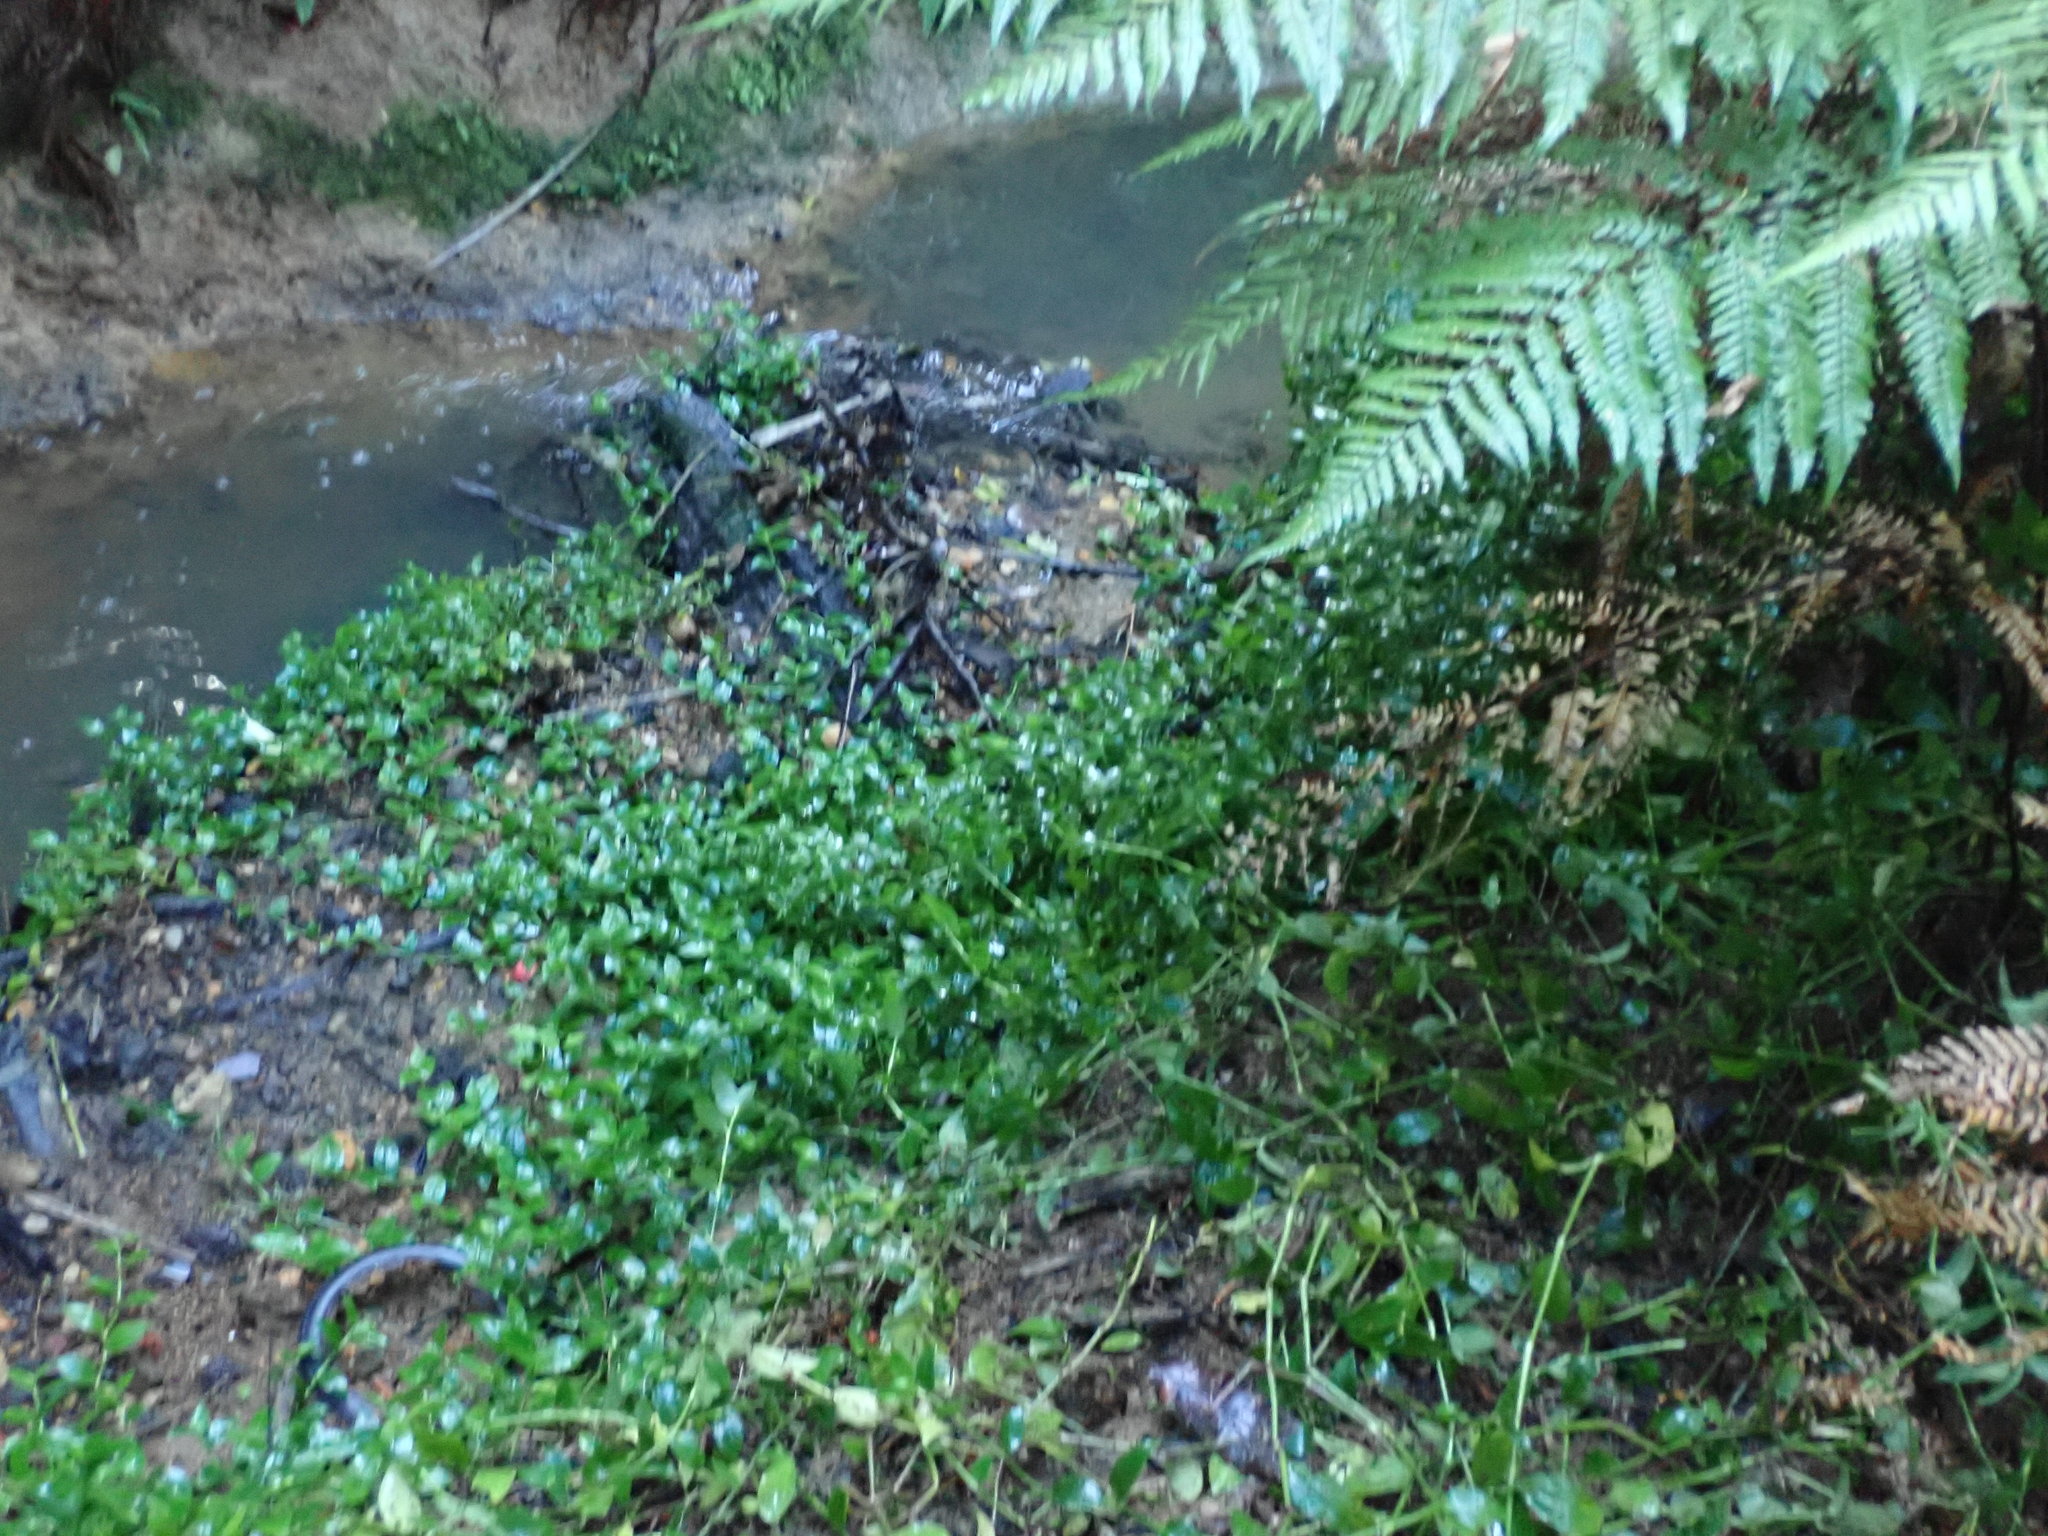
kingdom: Plantae
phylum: Tracheophyta
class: Liliopsida
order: Commelinales
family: Commelinaceae
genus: Tradescantia
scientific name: Tradescantia fluminensis
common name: Wandering-jew
